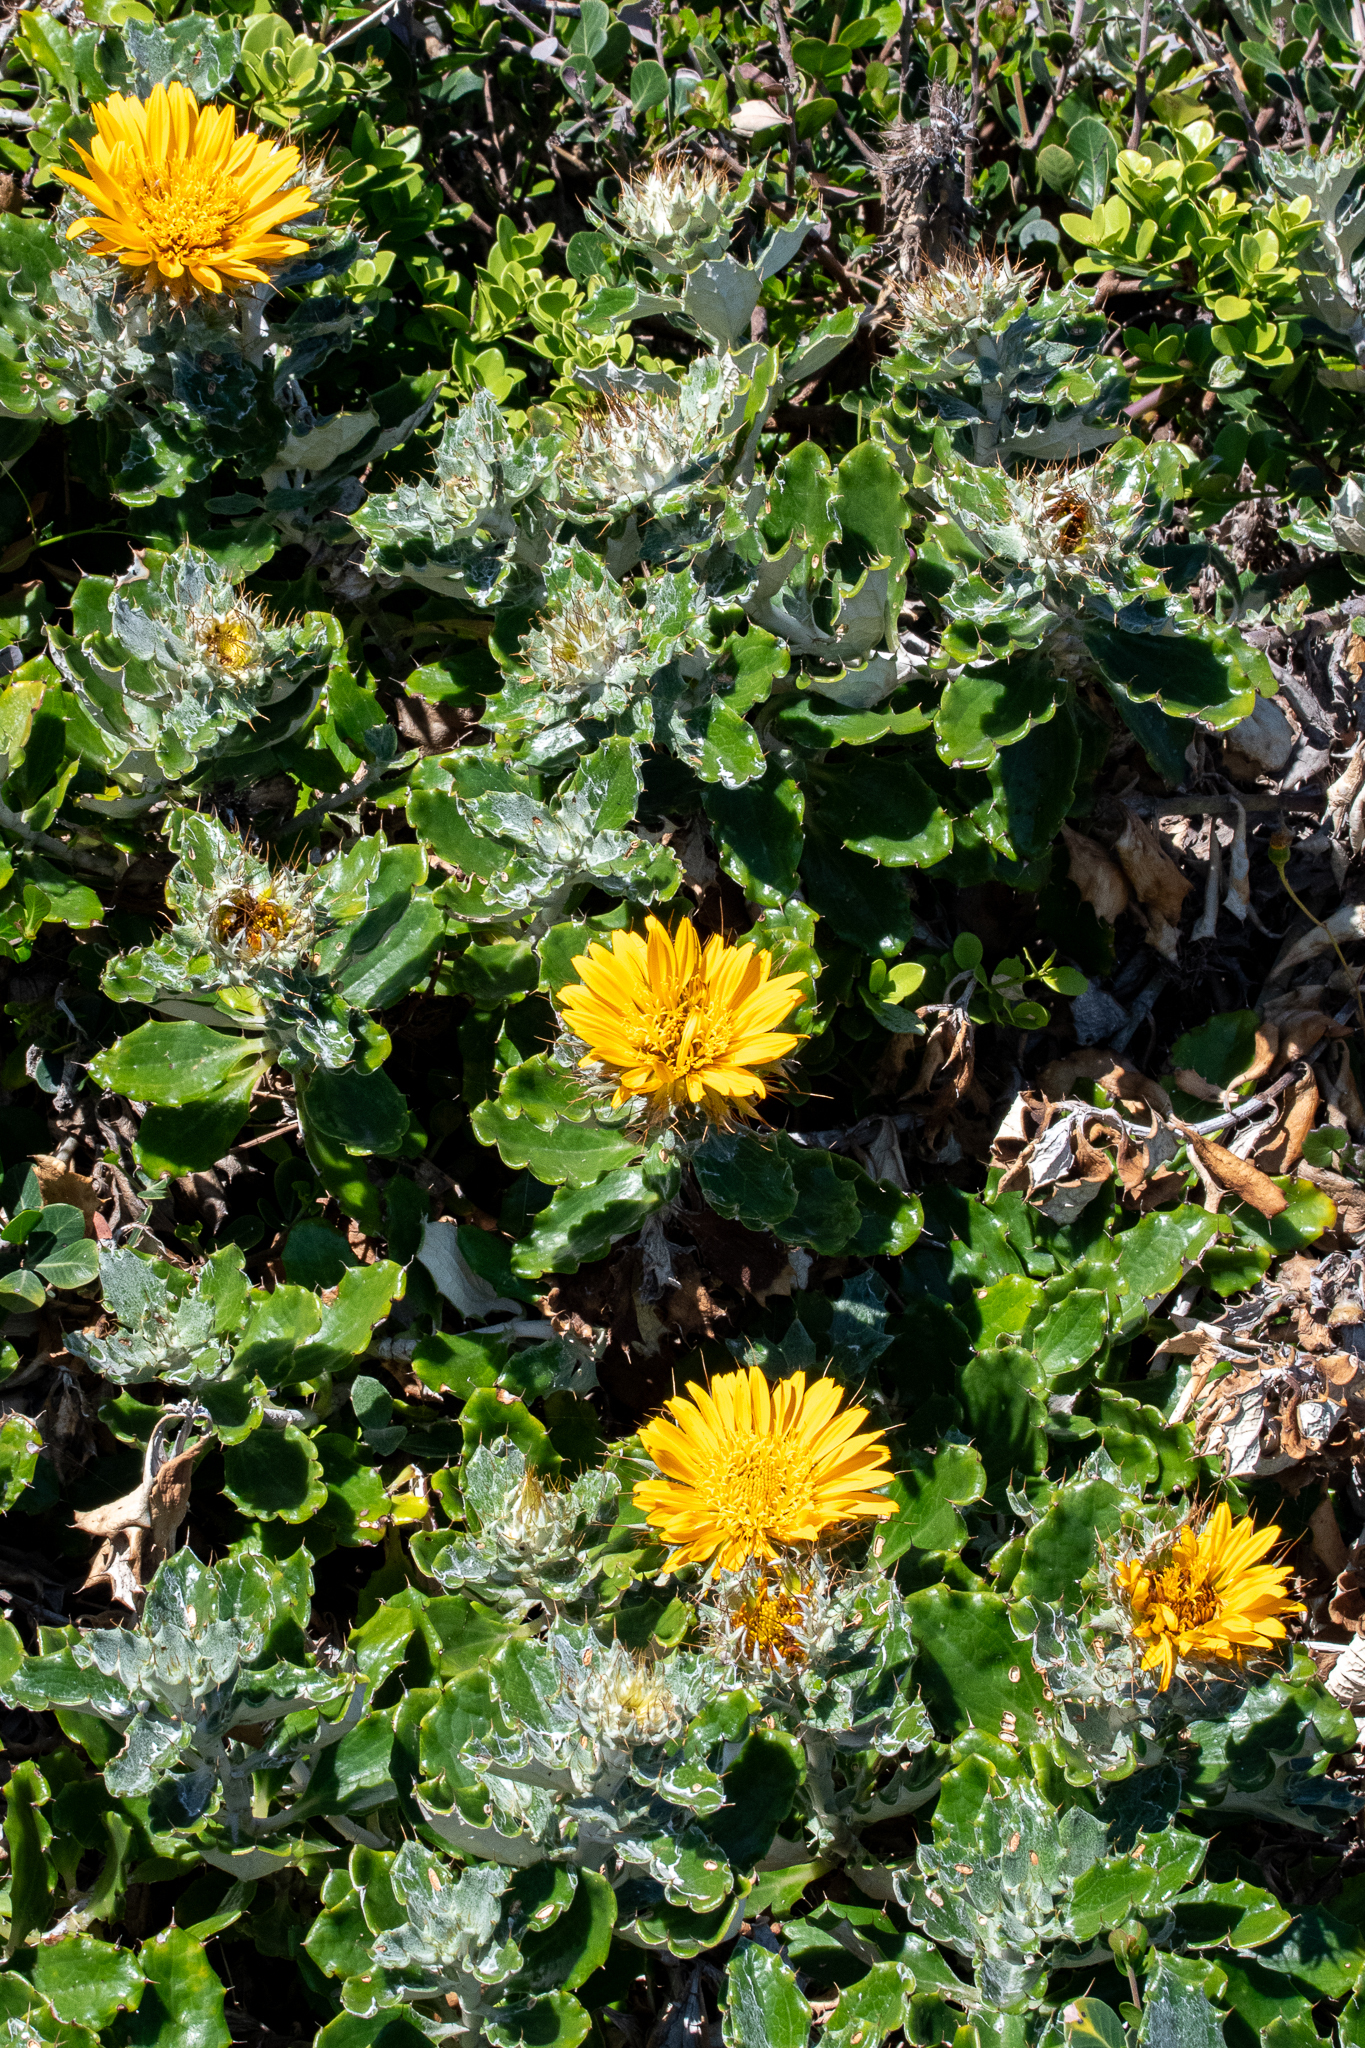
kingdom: Plantae
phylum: Tracheophyta
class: Magnoliopsida
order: Asterales
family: Asteraceae
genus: Berkheya
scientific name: Berkheya barbata
